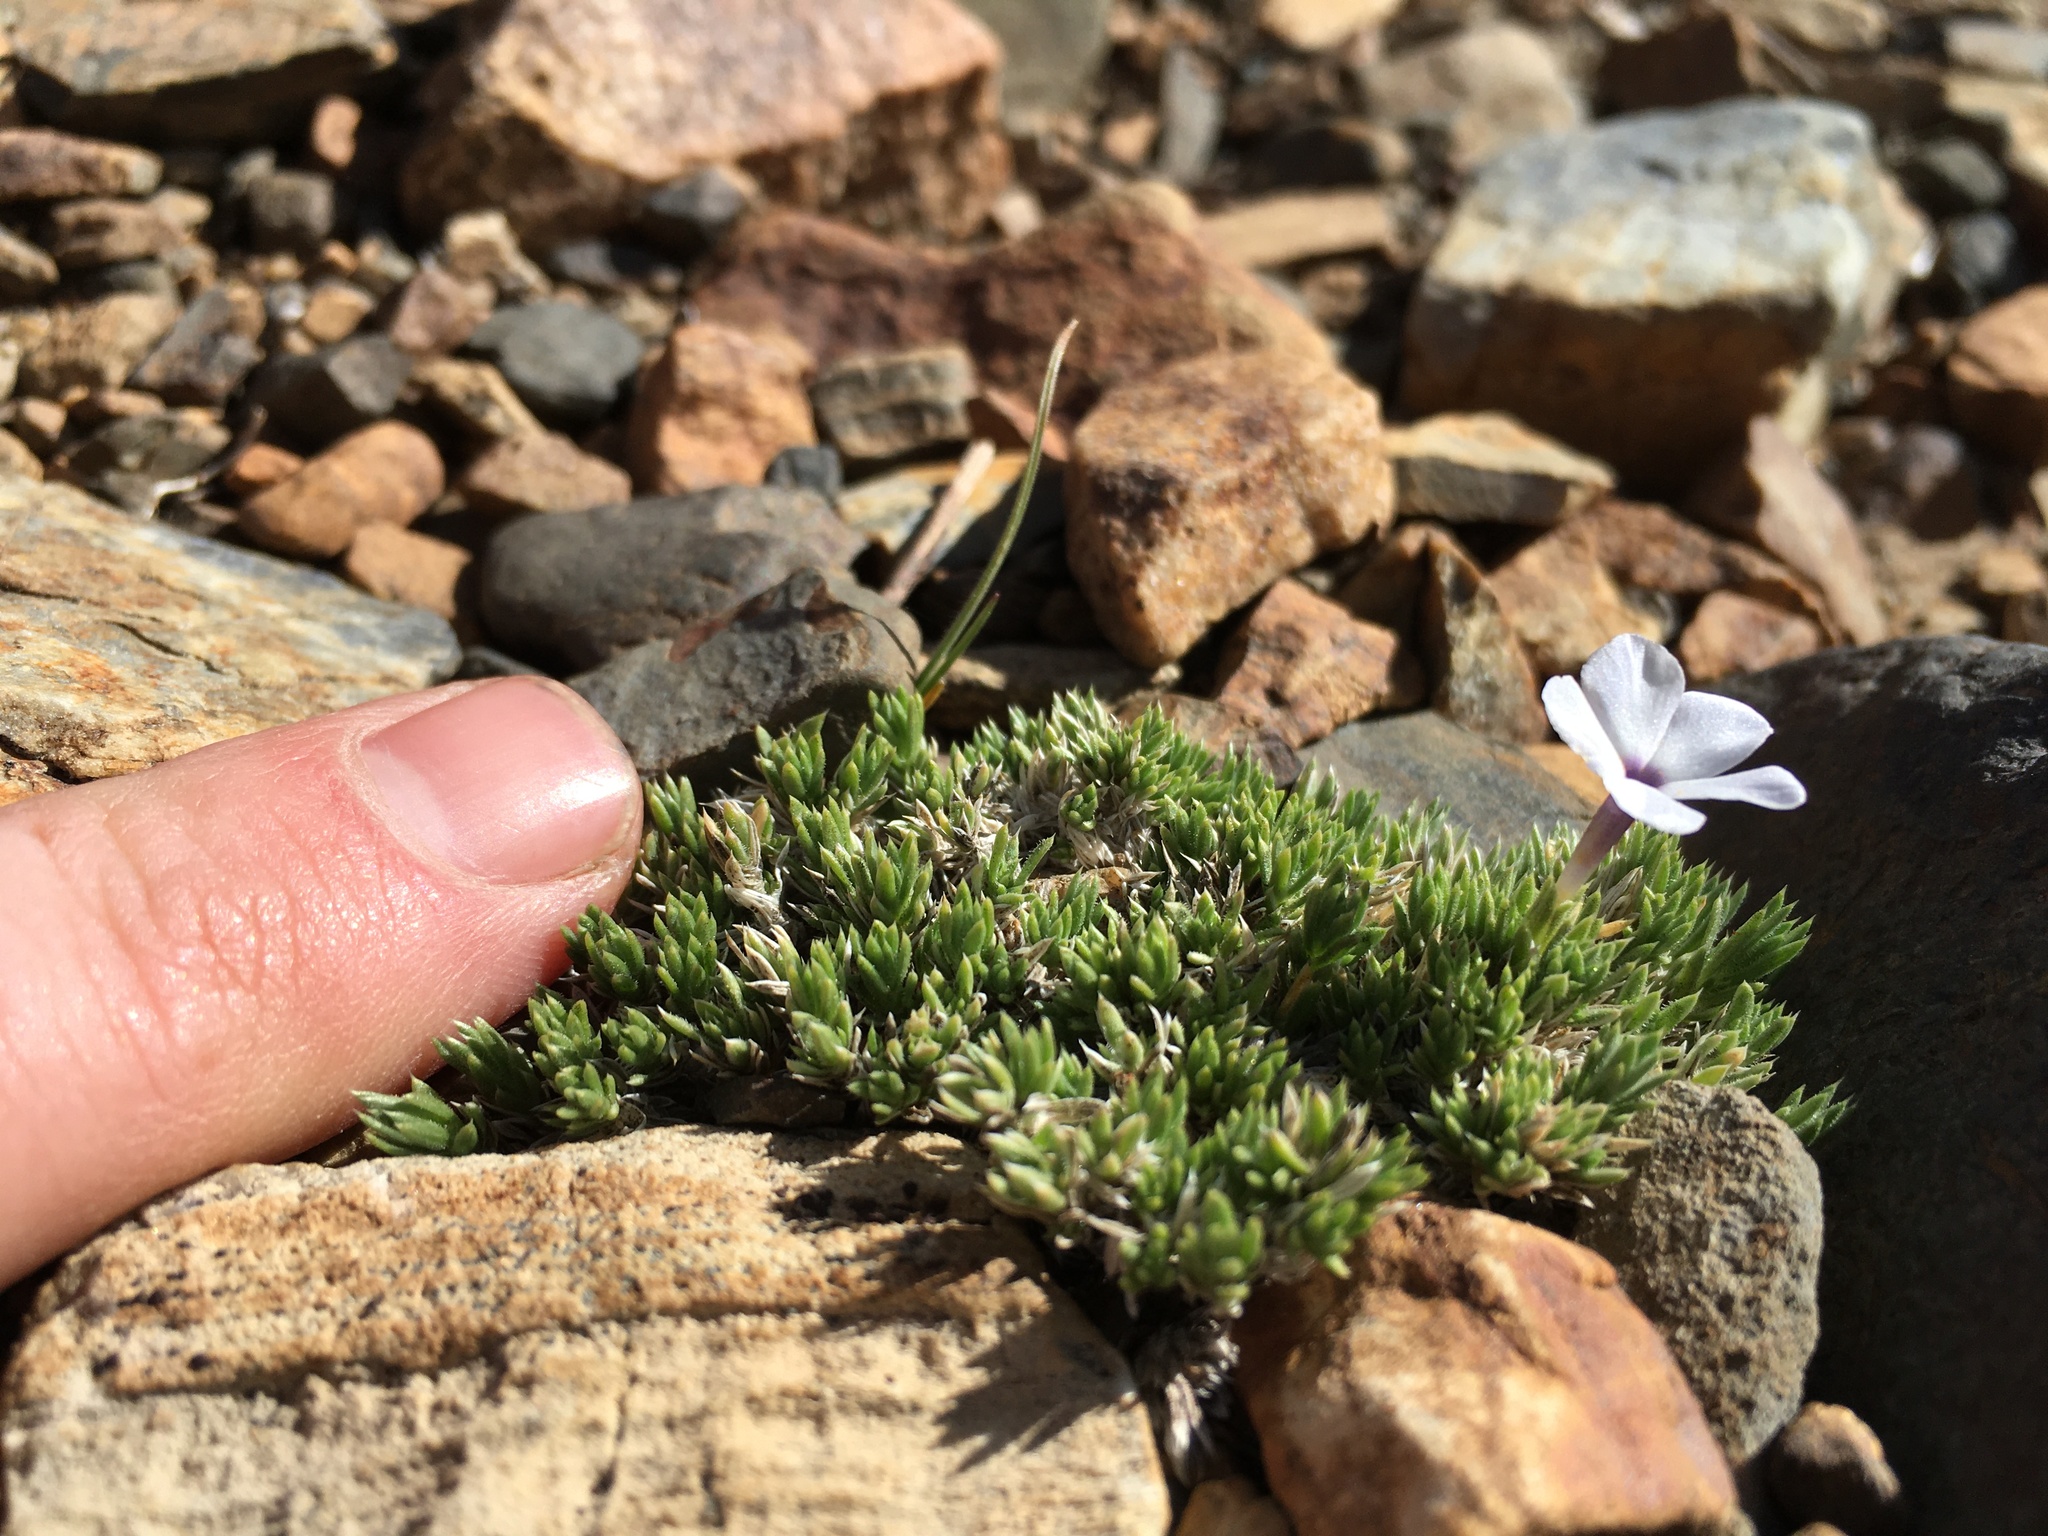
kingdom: Plantae
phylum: Tracheophyta
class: Magnoliopsida
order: Ericales
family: Polemoniaceae
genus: Phlox
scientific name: Phlox condensata
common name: Compact phlox
